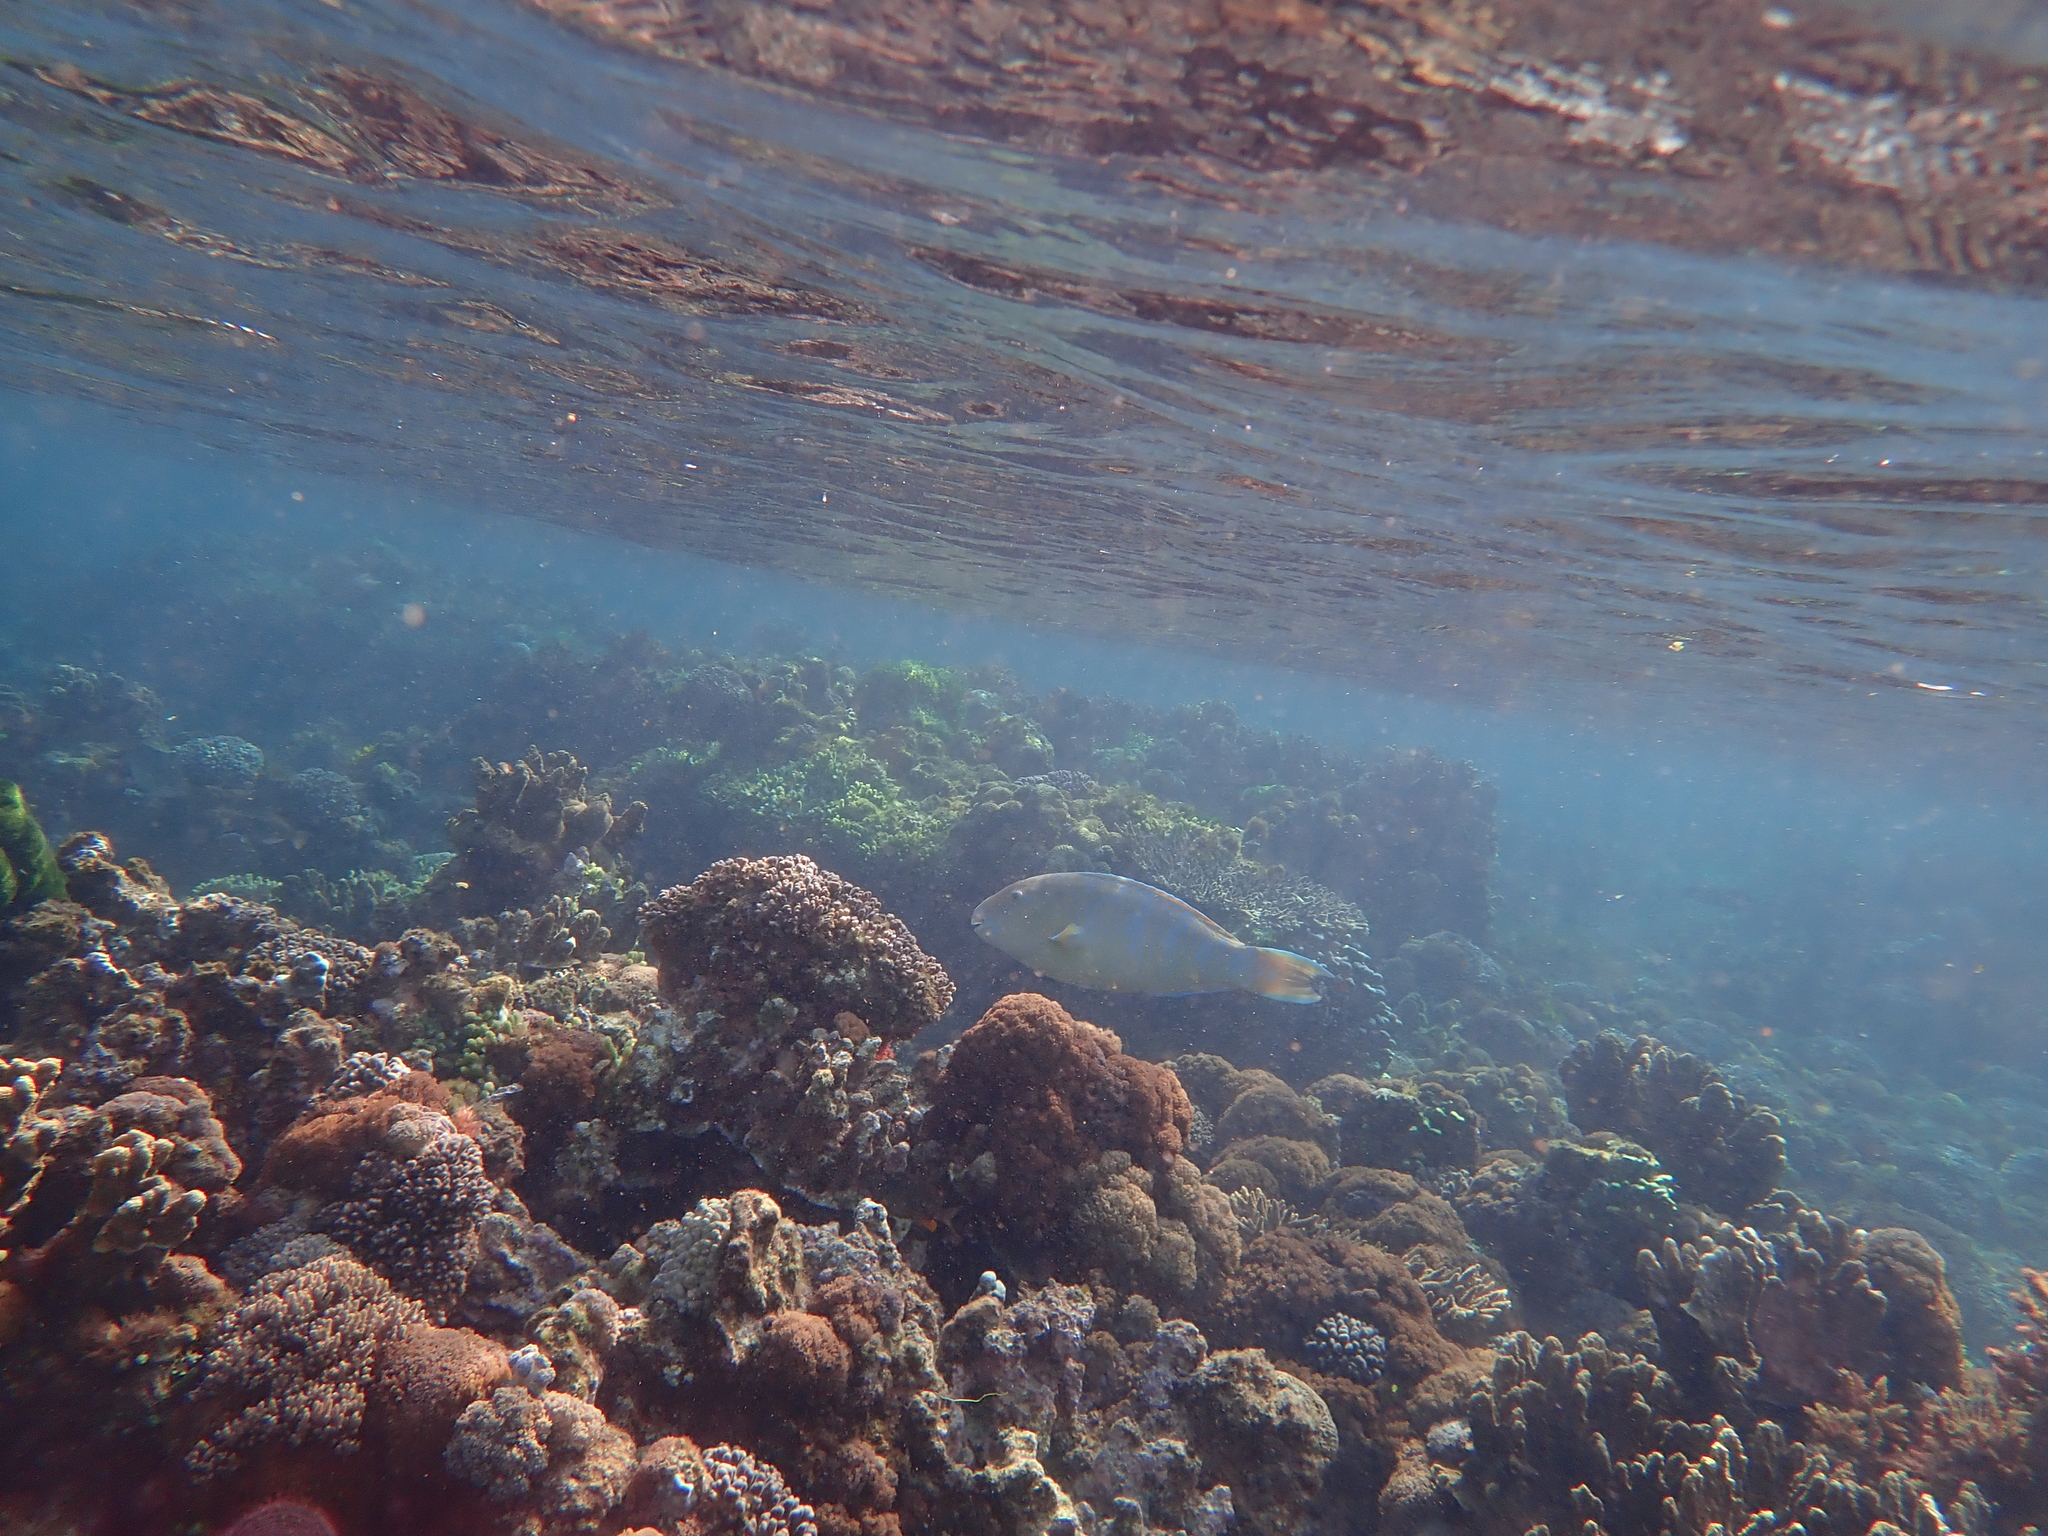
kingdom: Animalia
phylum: Chordata
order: Perciformes
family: Scaridae
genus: Scarus
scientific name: Scarus ghobban
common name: Blue-barred parrotfish
